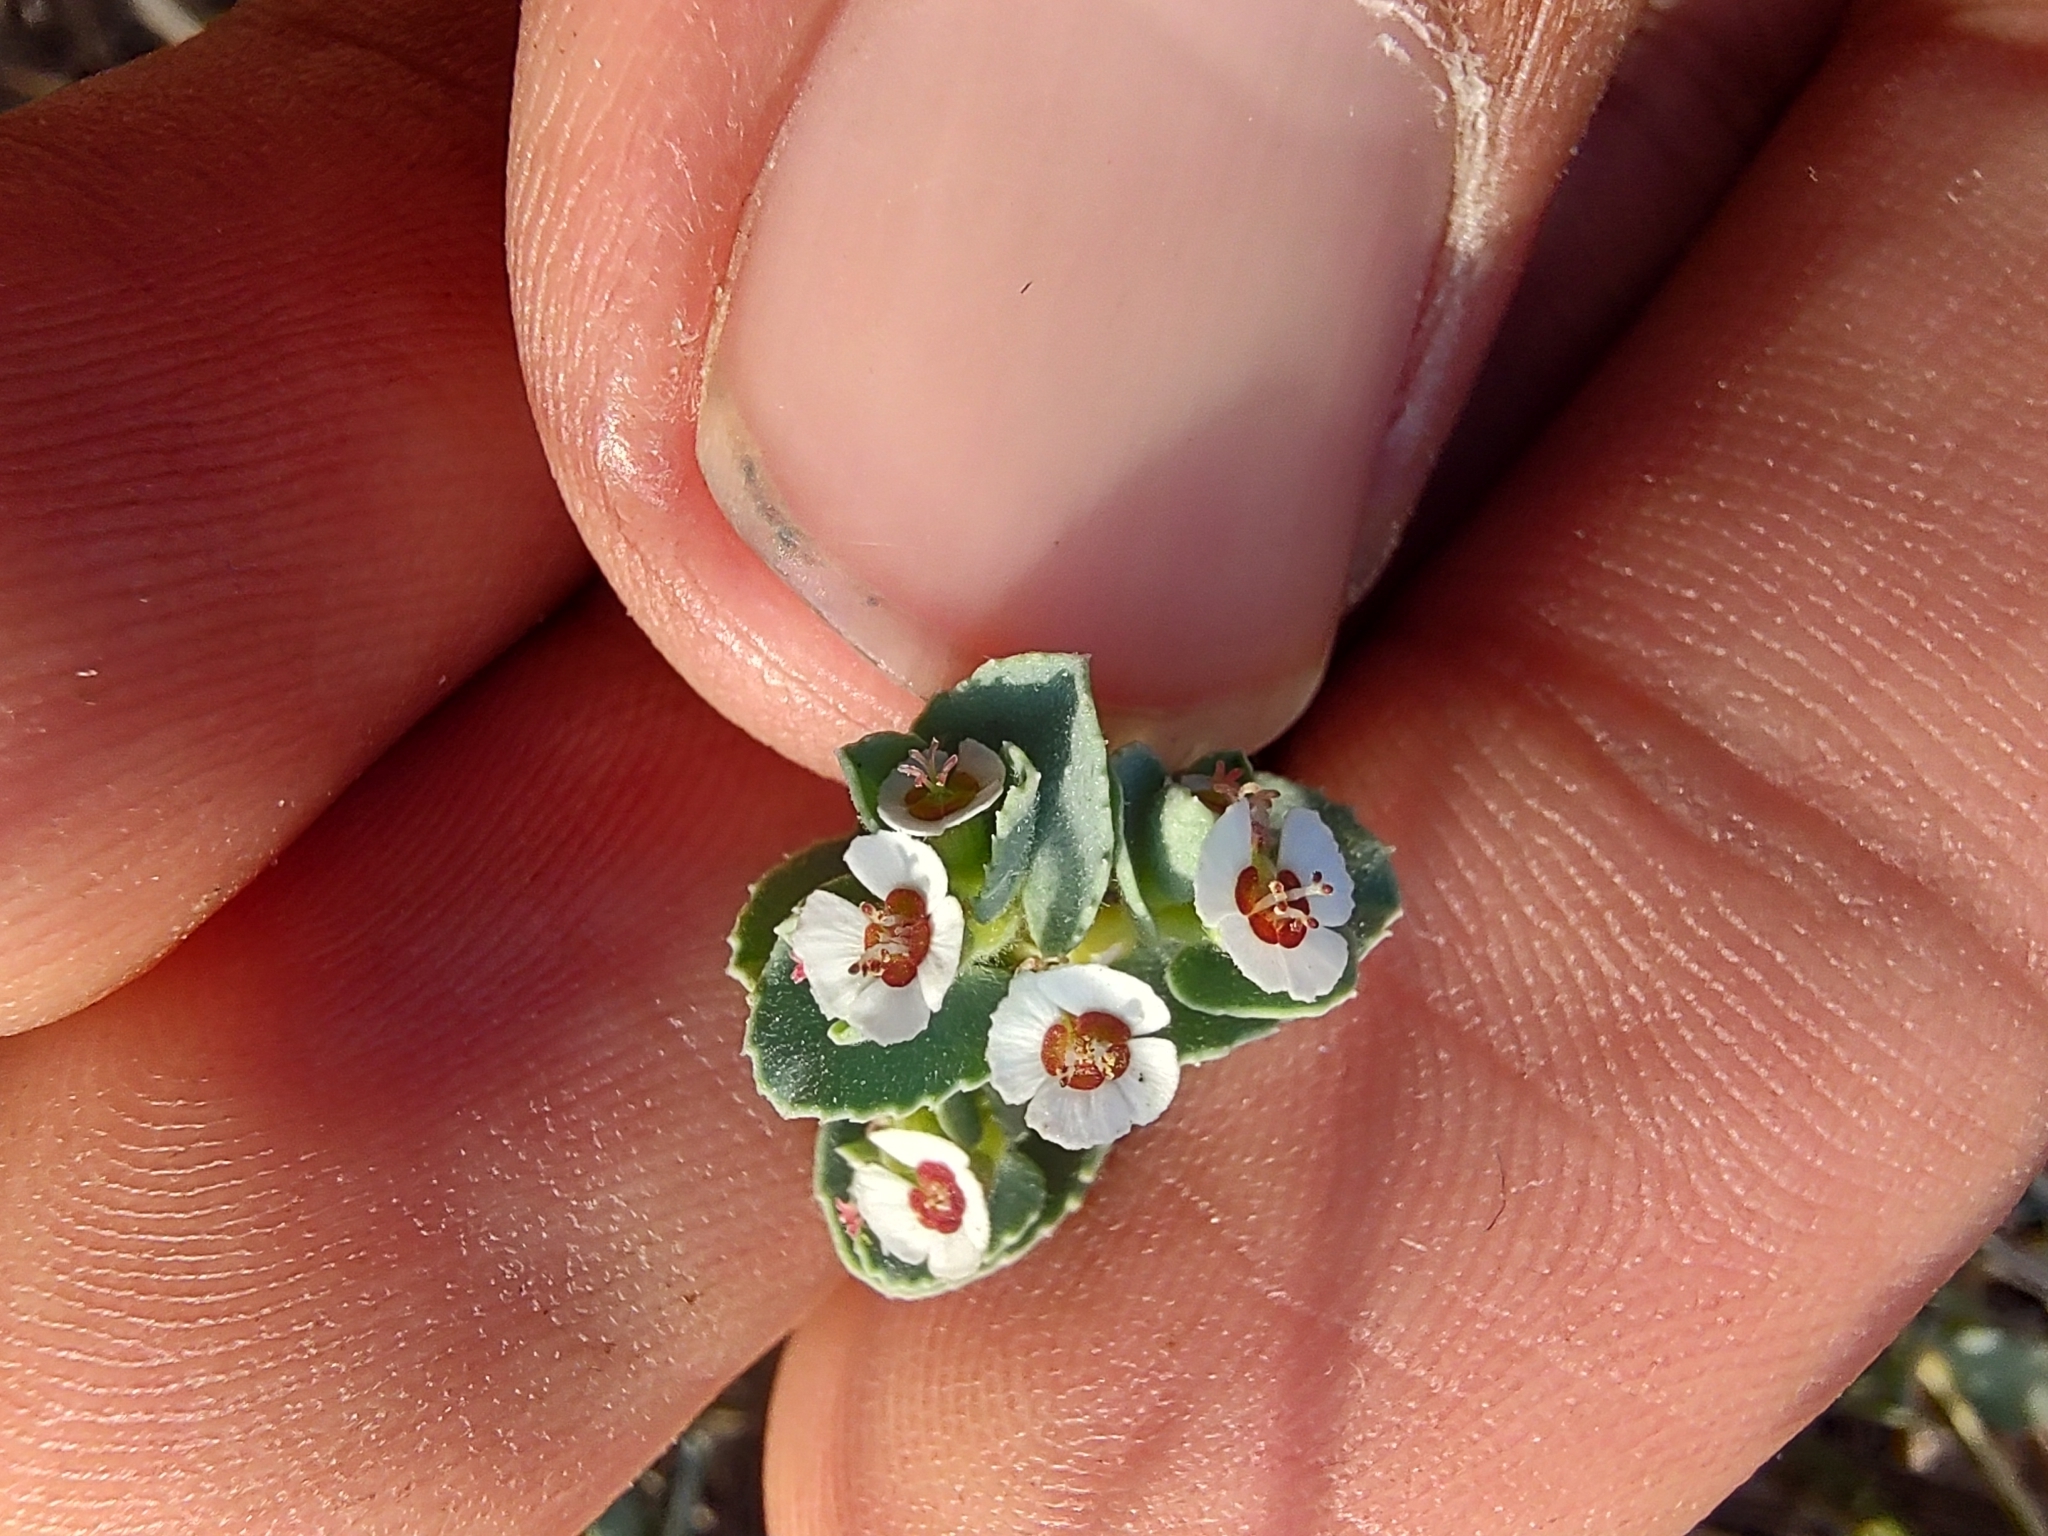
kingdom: Plantae
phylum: Tracheophyta
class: Magnoliopsida
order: Malpighiales
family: Euphorbiaceae
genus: Euphorbia
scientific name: Euphorbia leucophylla
